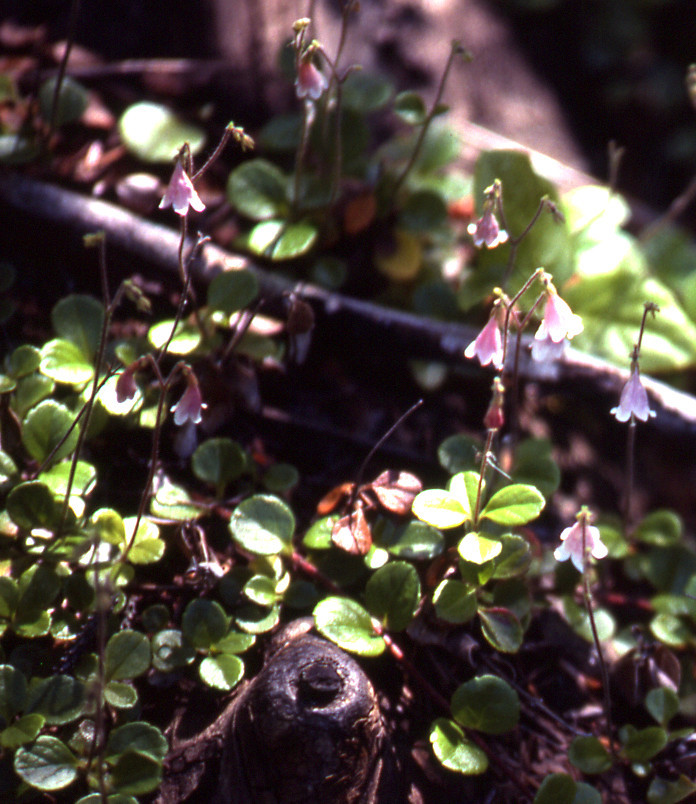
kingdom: Plantae
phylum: Tracheophyta
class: Magnoliopsida
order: Dipsacales
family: Caprifoliaceae
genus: Linnaea
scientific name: Linnaea borealis
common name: Twinflower
